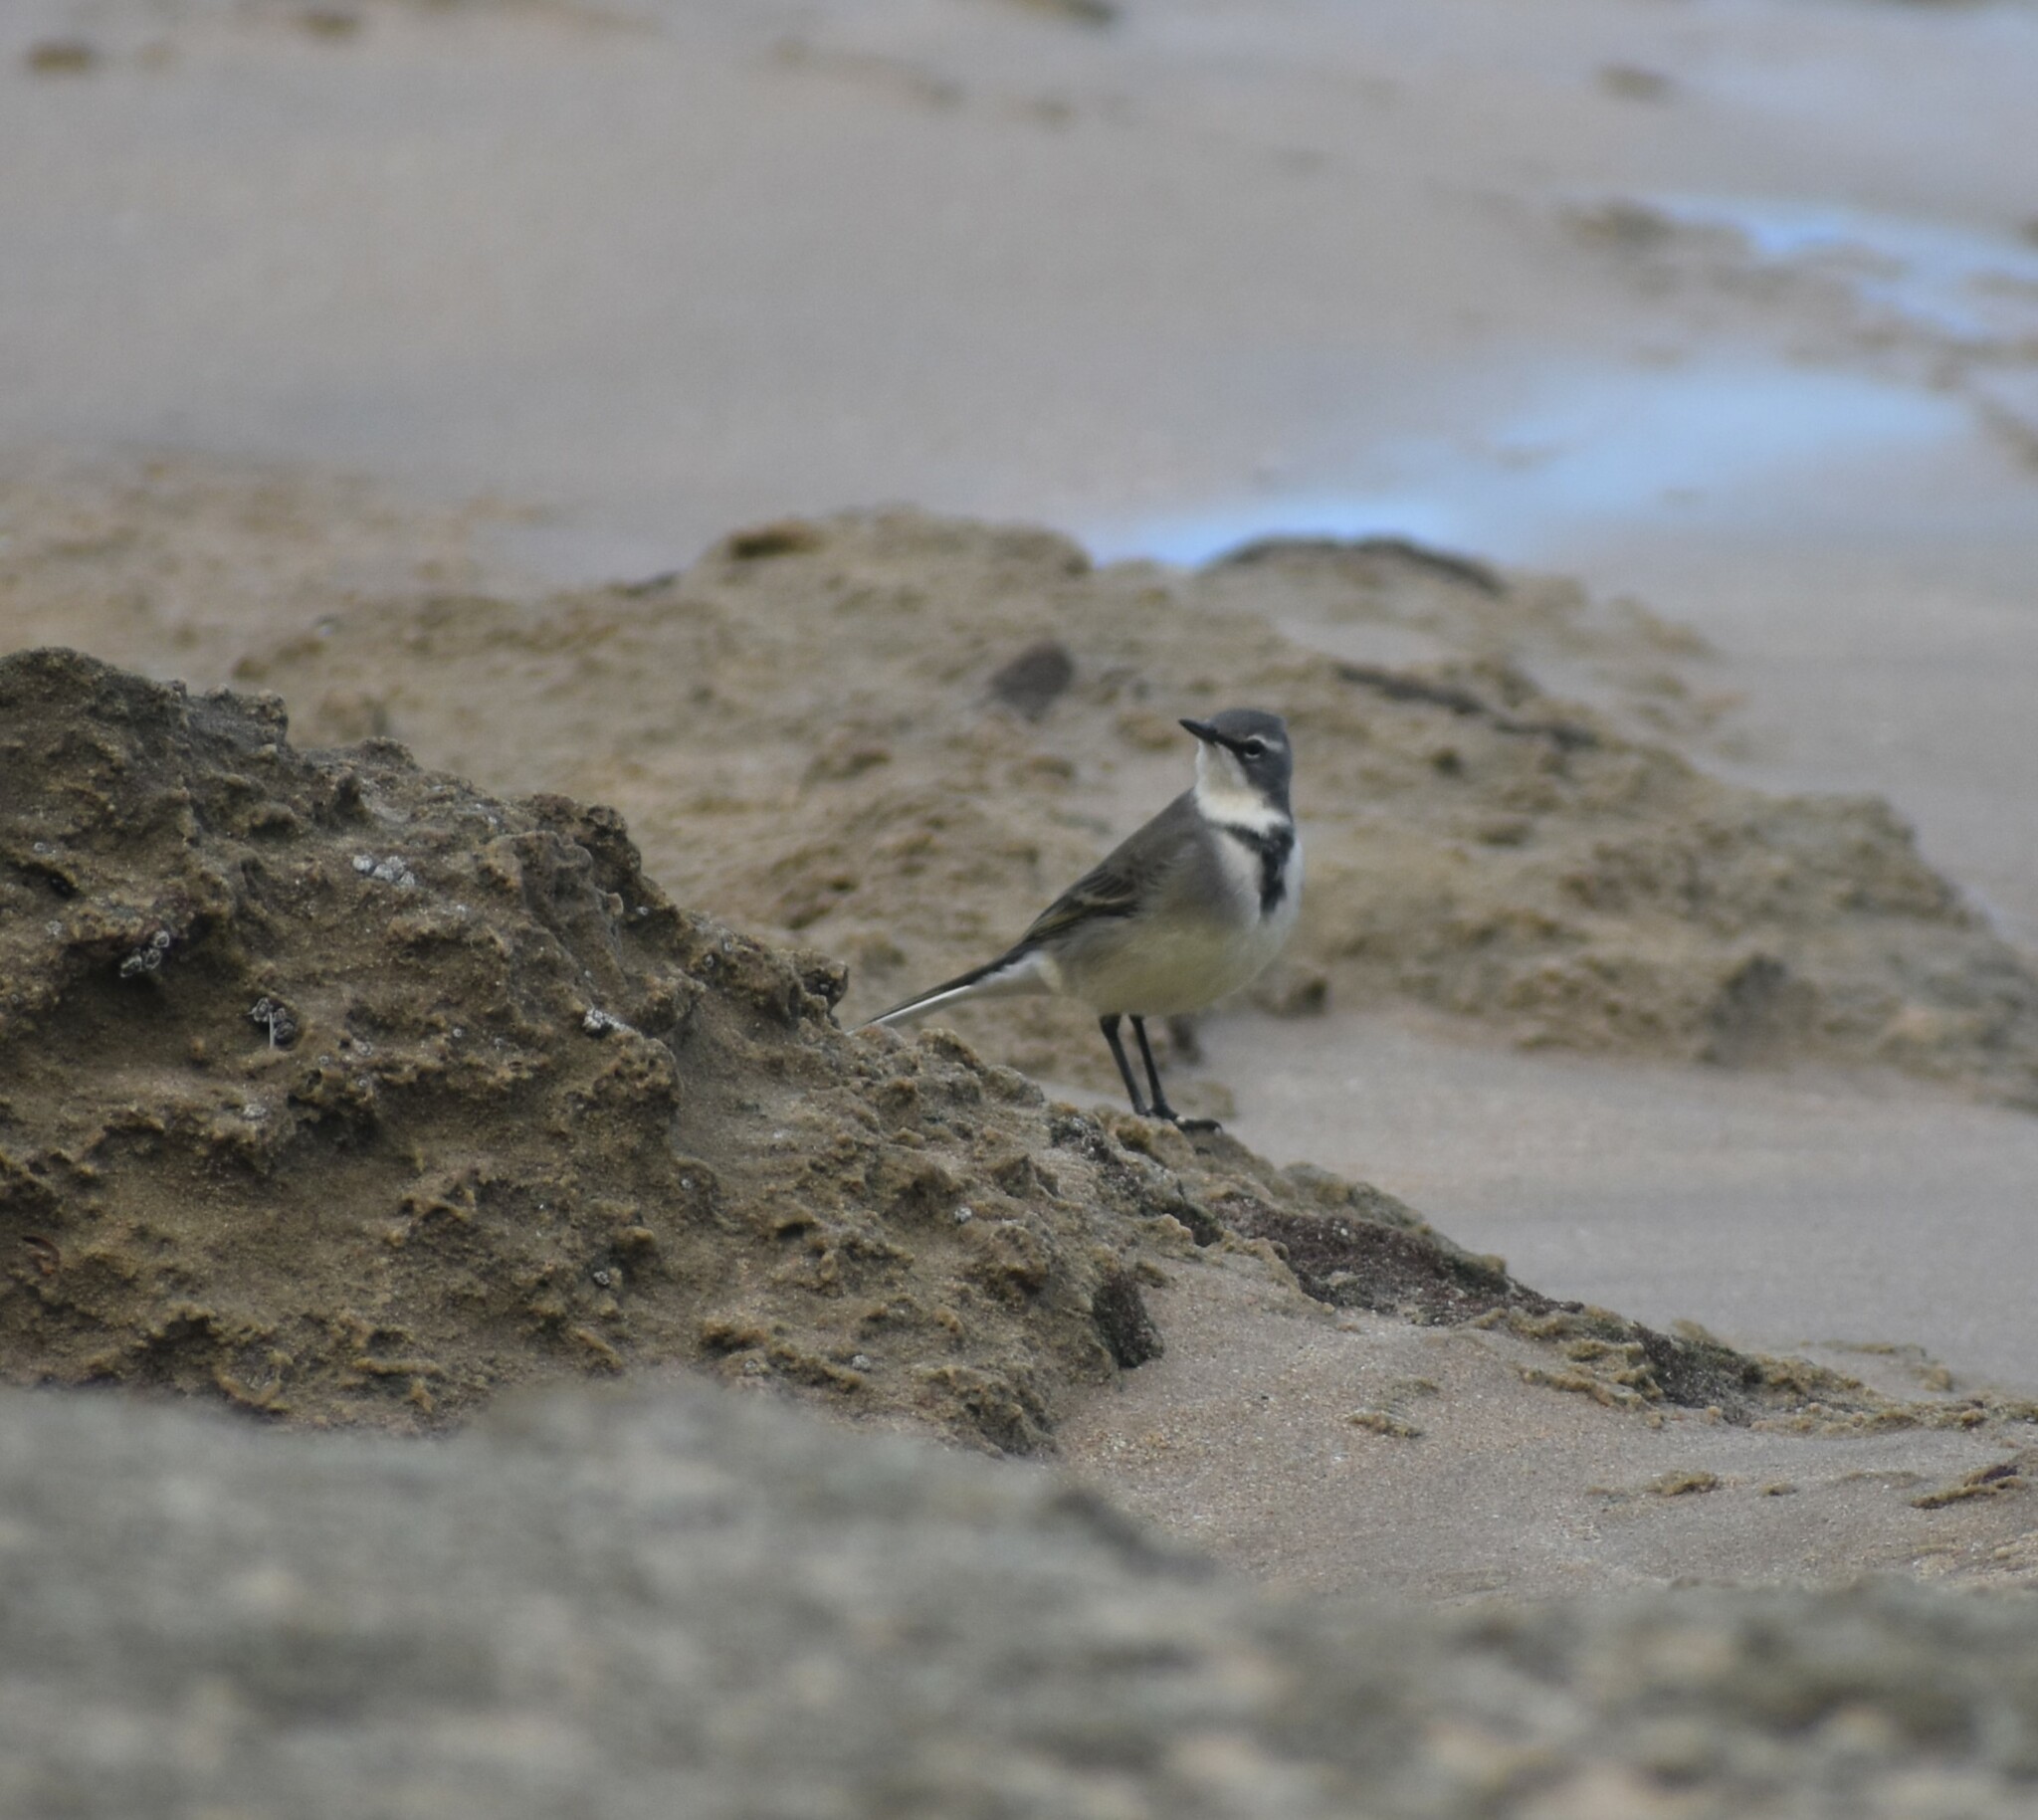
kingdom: Animalia
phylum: Chordata
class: Aves
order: Passeriformes
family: Motacillidae
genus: Motacilla
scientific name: Motacilla capensis
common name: Cape wagtail
